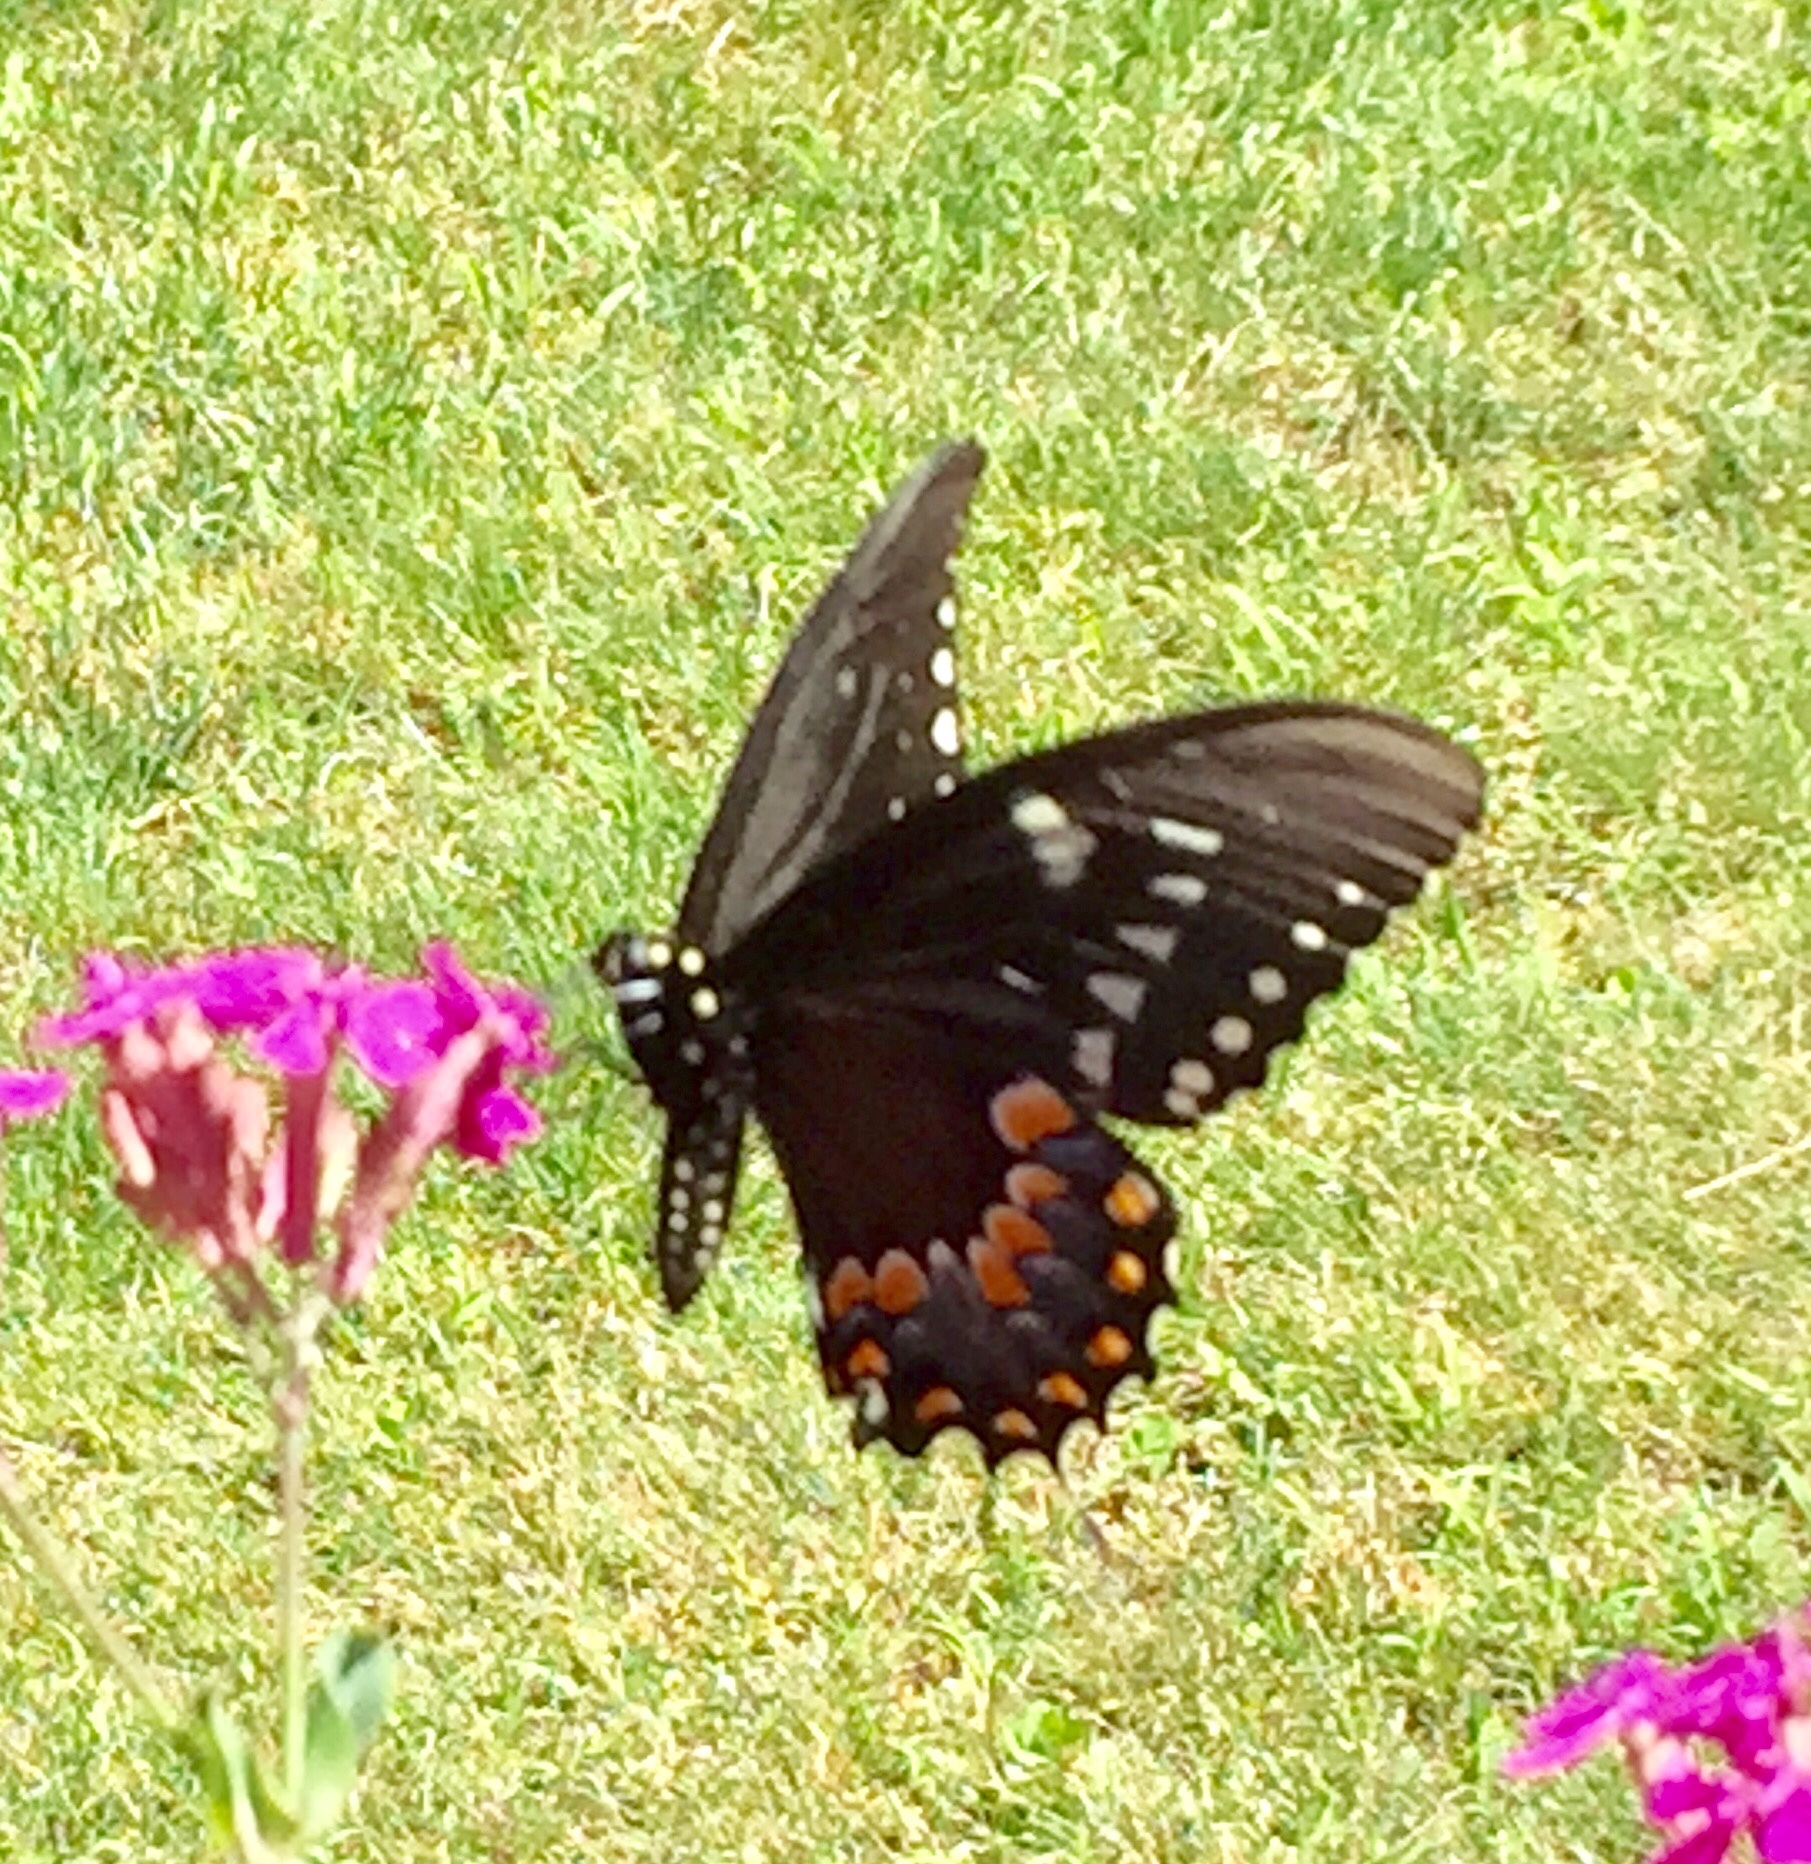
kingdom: Animalia
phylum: Arthropoda
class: Insecta
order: Lepidoptera
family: Papilionidae
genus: Papilio
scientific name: Papilio troilus
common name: Spicebush swallowtail
